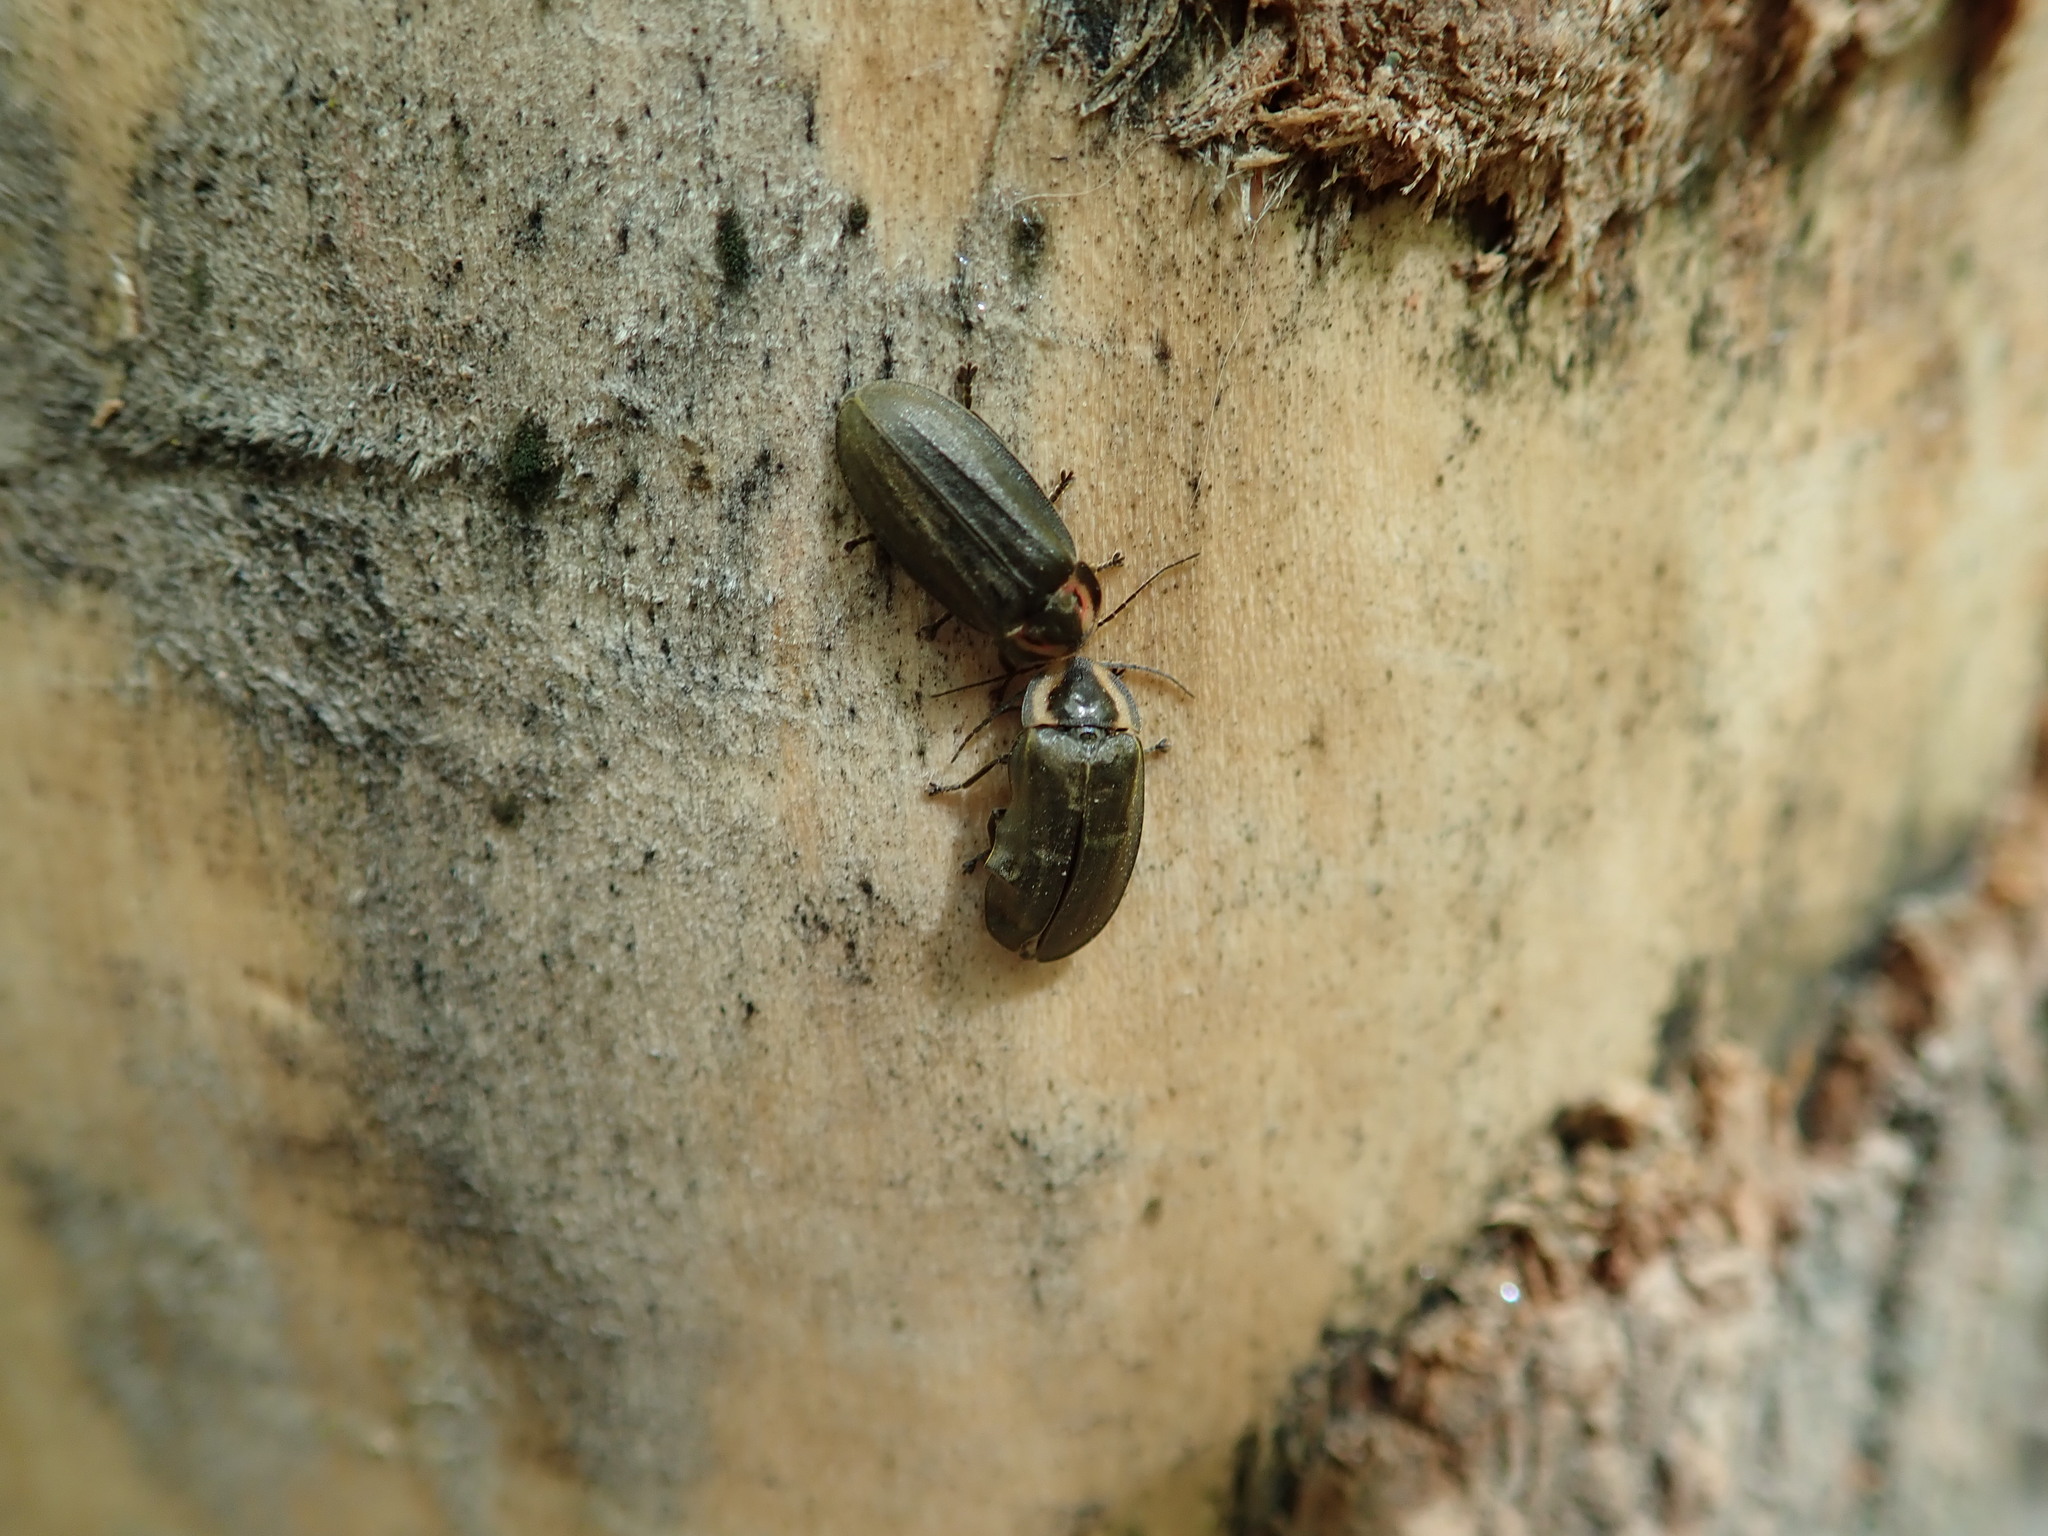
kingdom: Animalia
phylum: Arthropoda
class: Insecta
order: Coleoptera
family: Lampyridae
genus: Photinus
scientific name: Photinus corrusca
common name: Winter firefly
